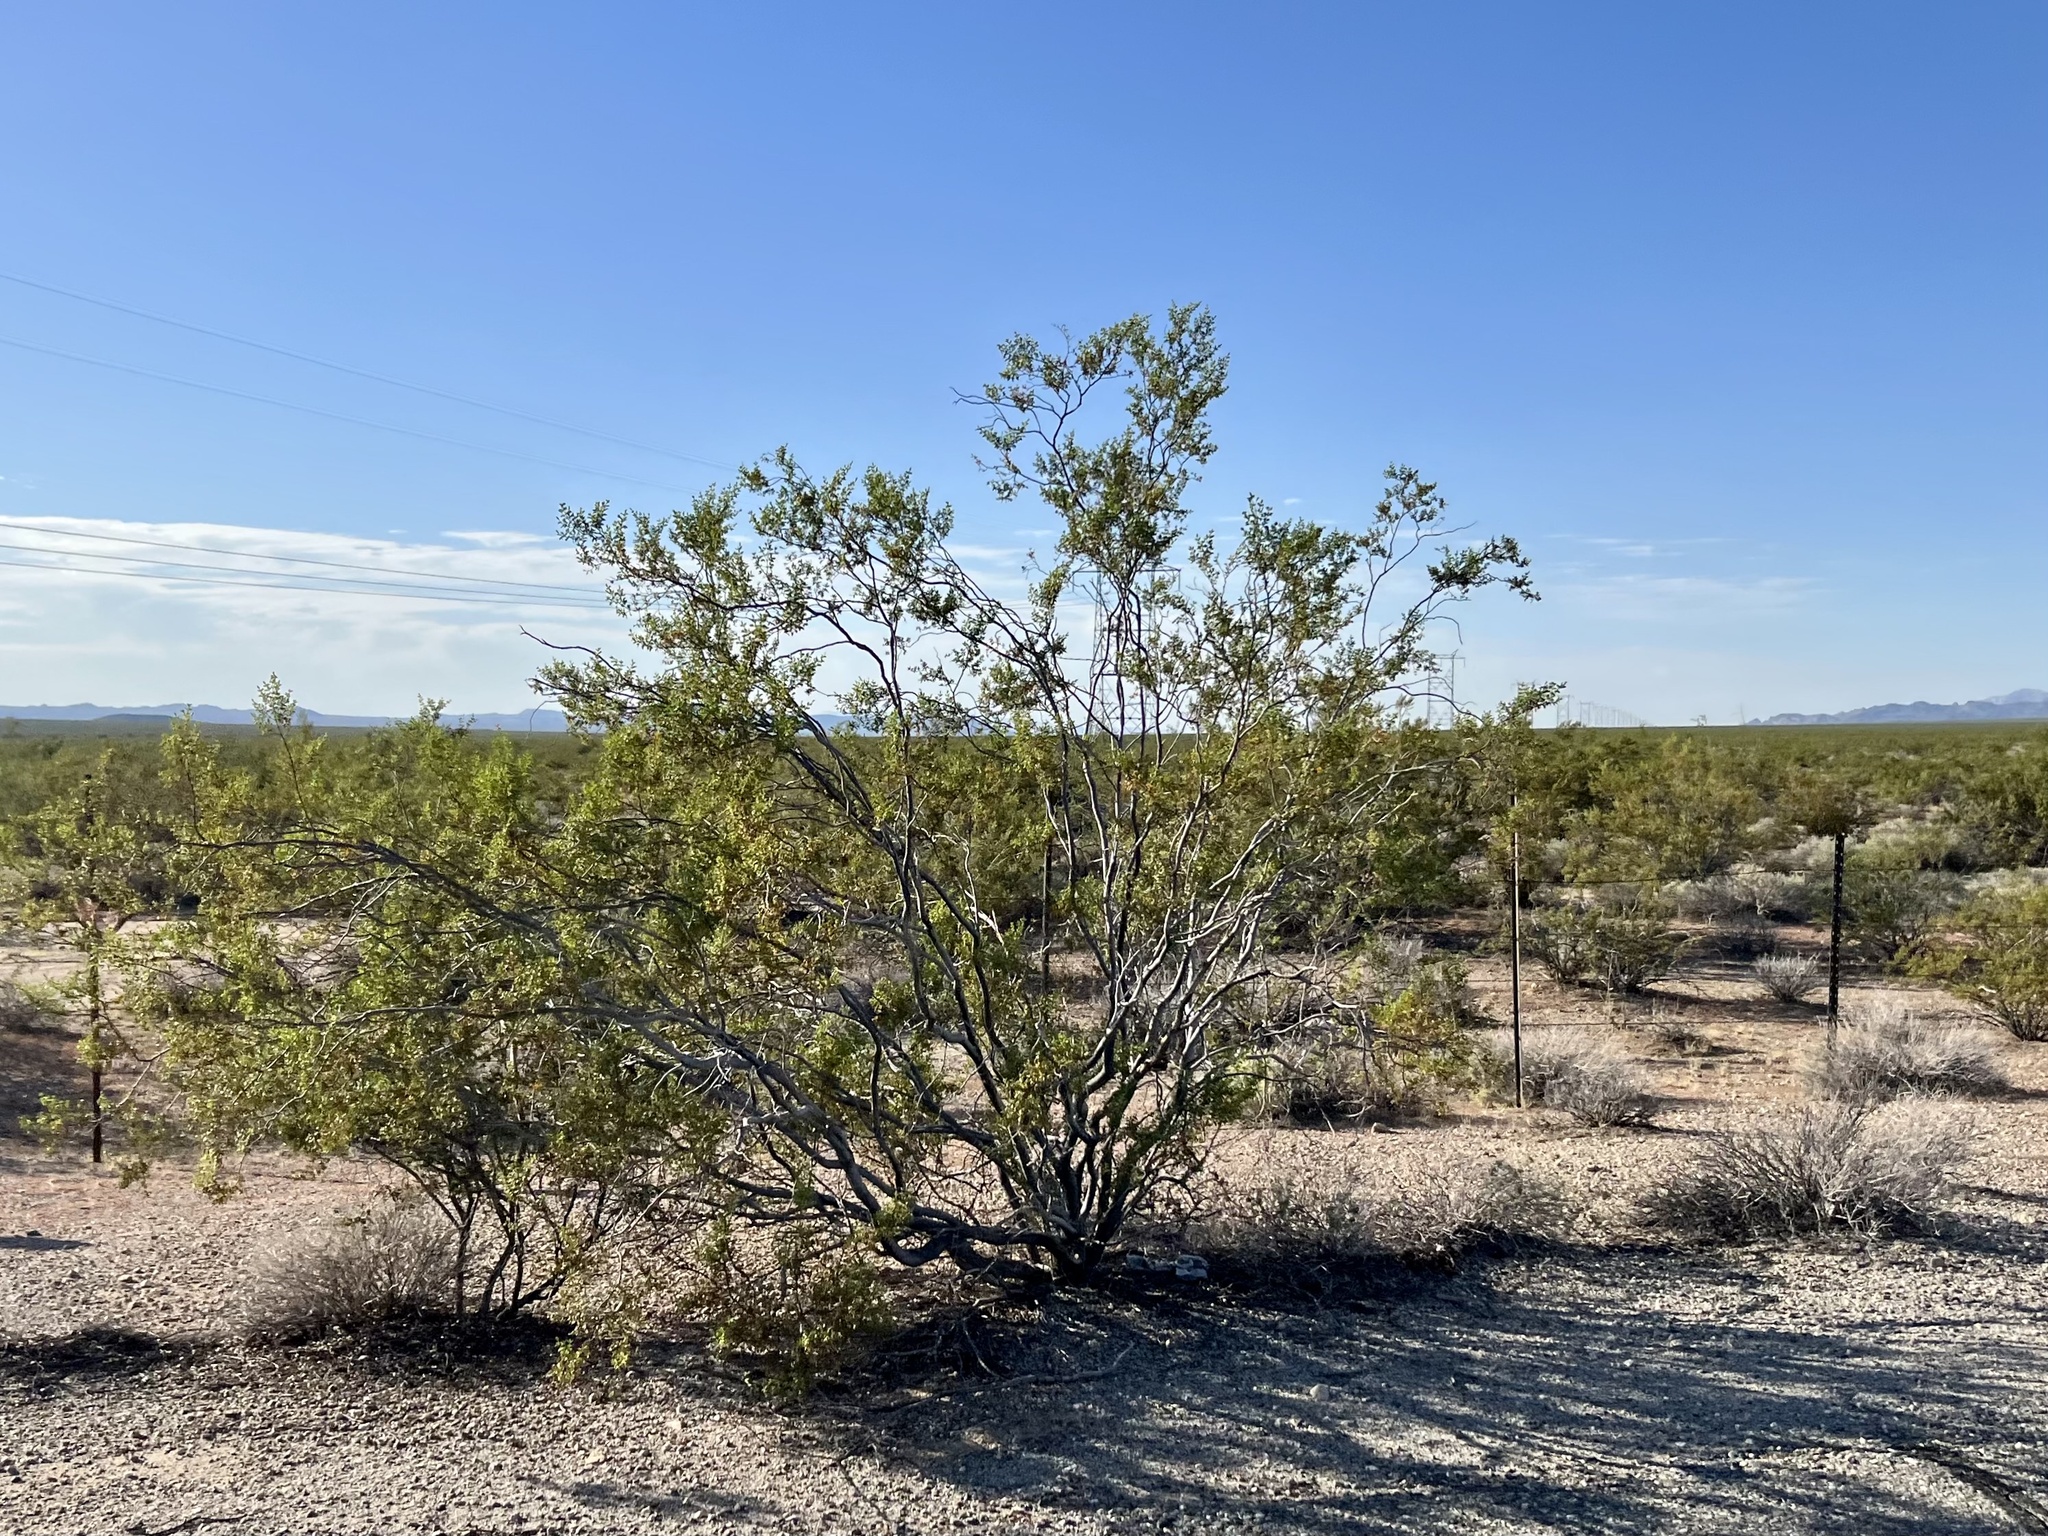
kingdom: Plantae
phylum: Tracheophyta
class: Magnoliopsida
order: Zygophyllales
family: Zygophyllaceae
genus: Larrea
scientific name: Larrea tridentata
